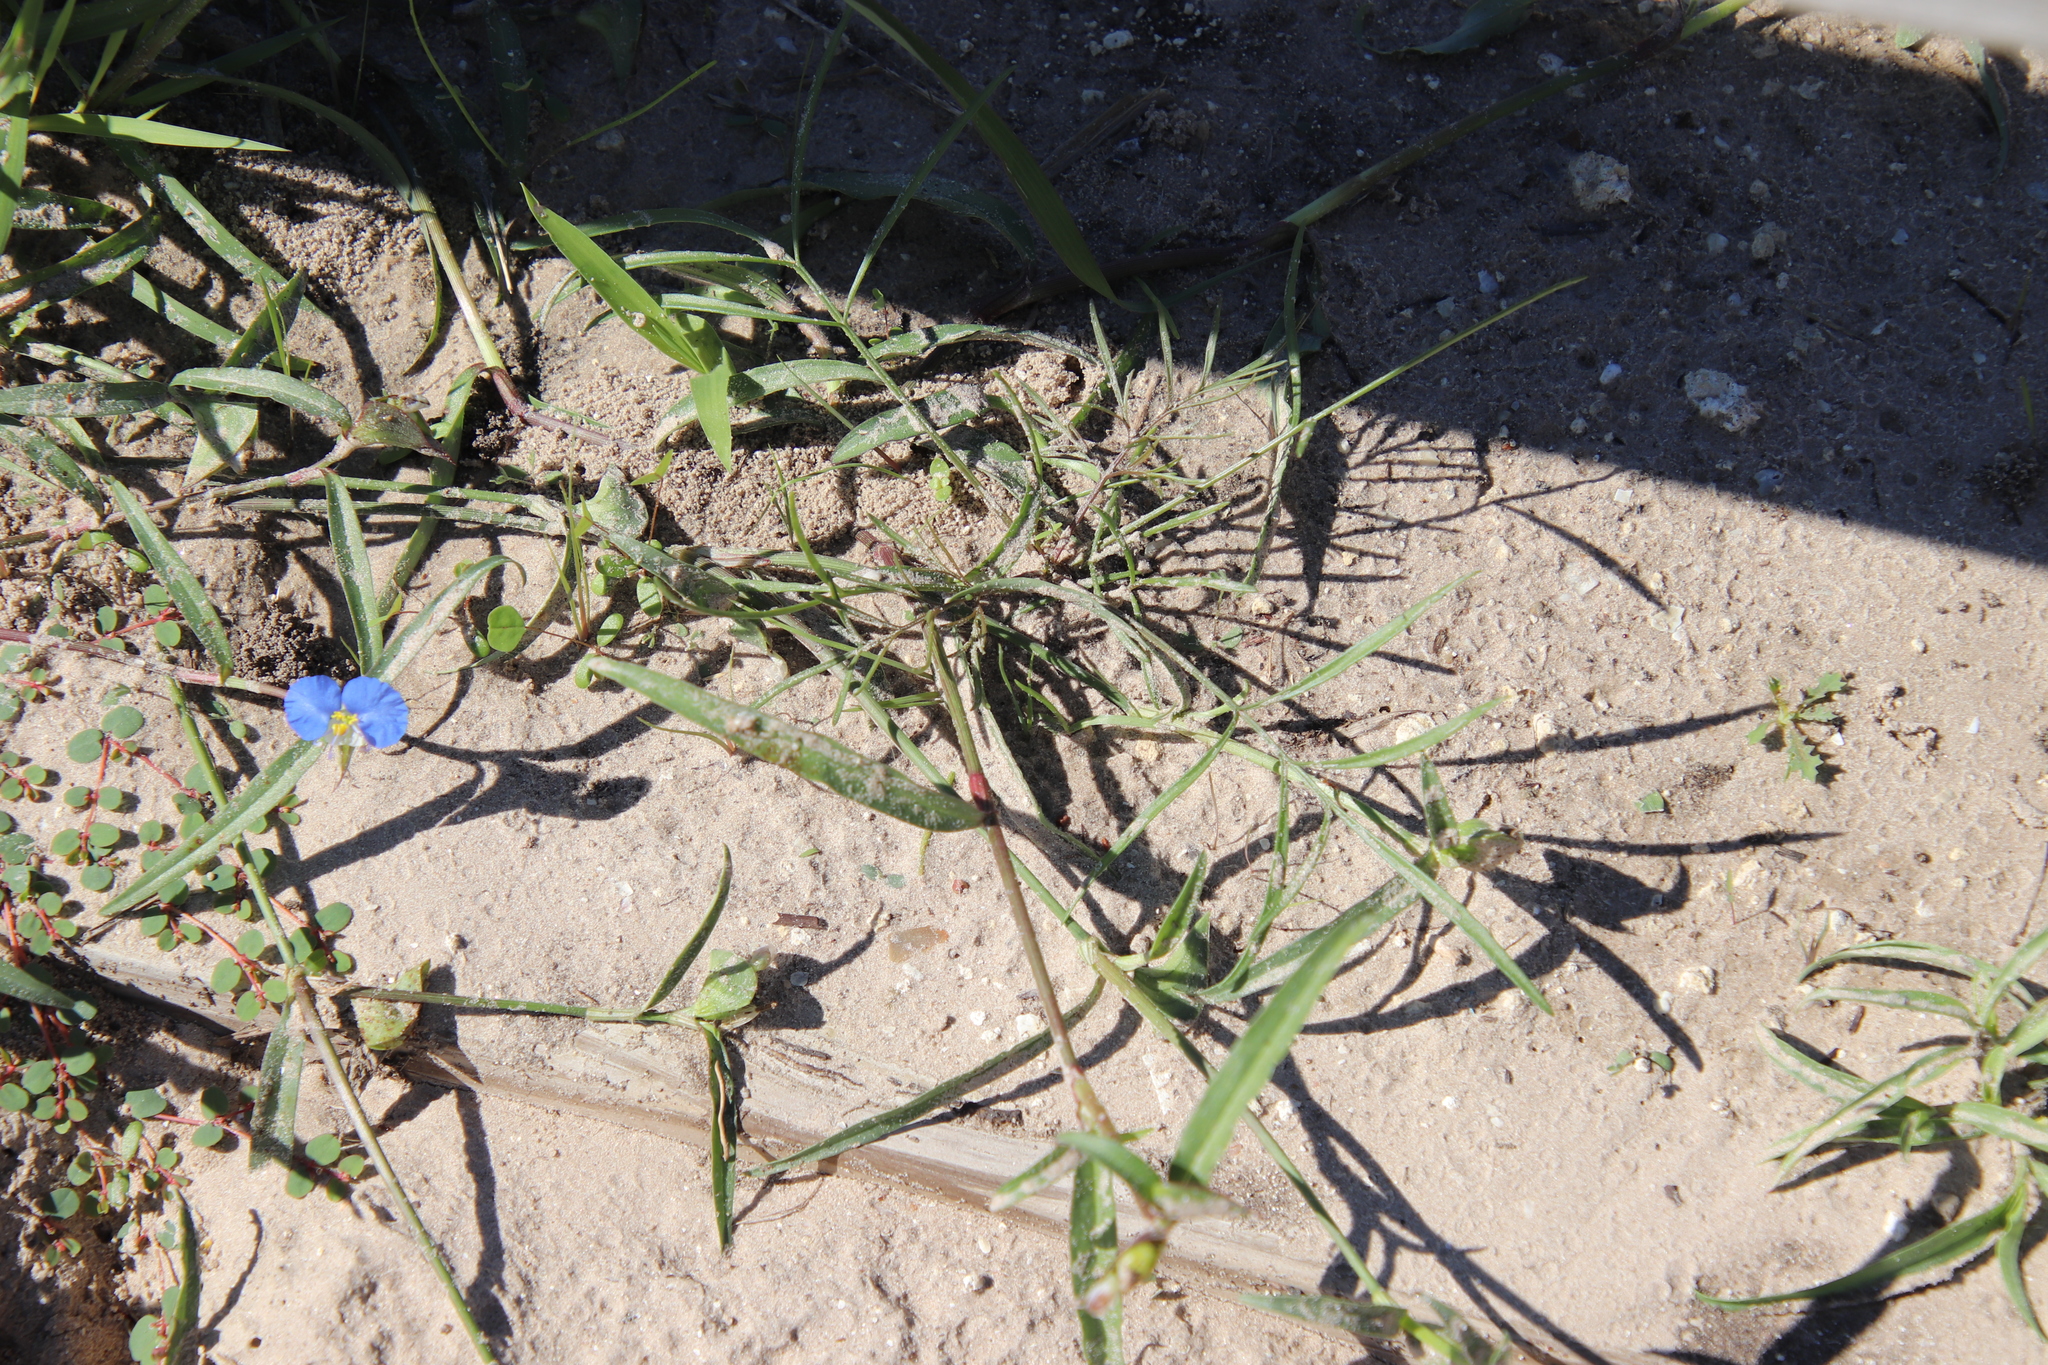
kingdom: Plantae
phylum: Tracheophyta
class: Liliopsida
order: Commelinales
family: Commelinaceae
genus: Commelina
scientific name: Commelina erecta
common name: Blousel blommetjie
